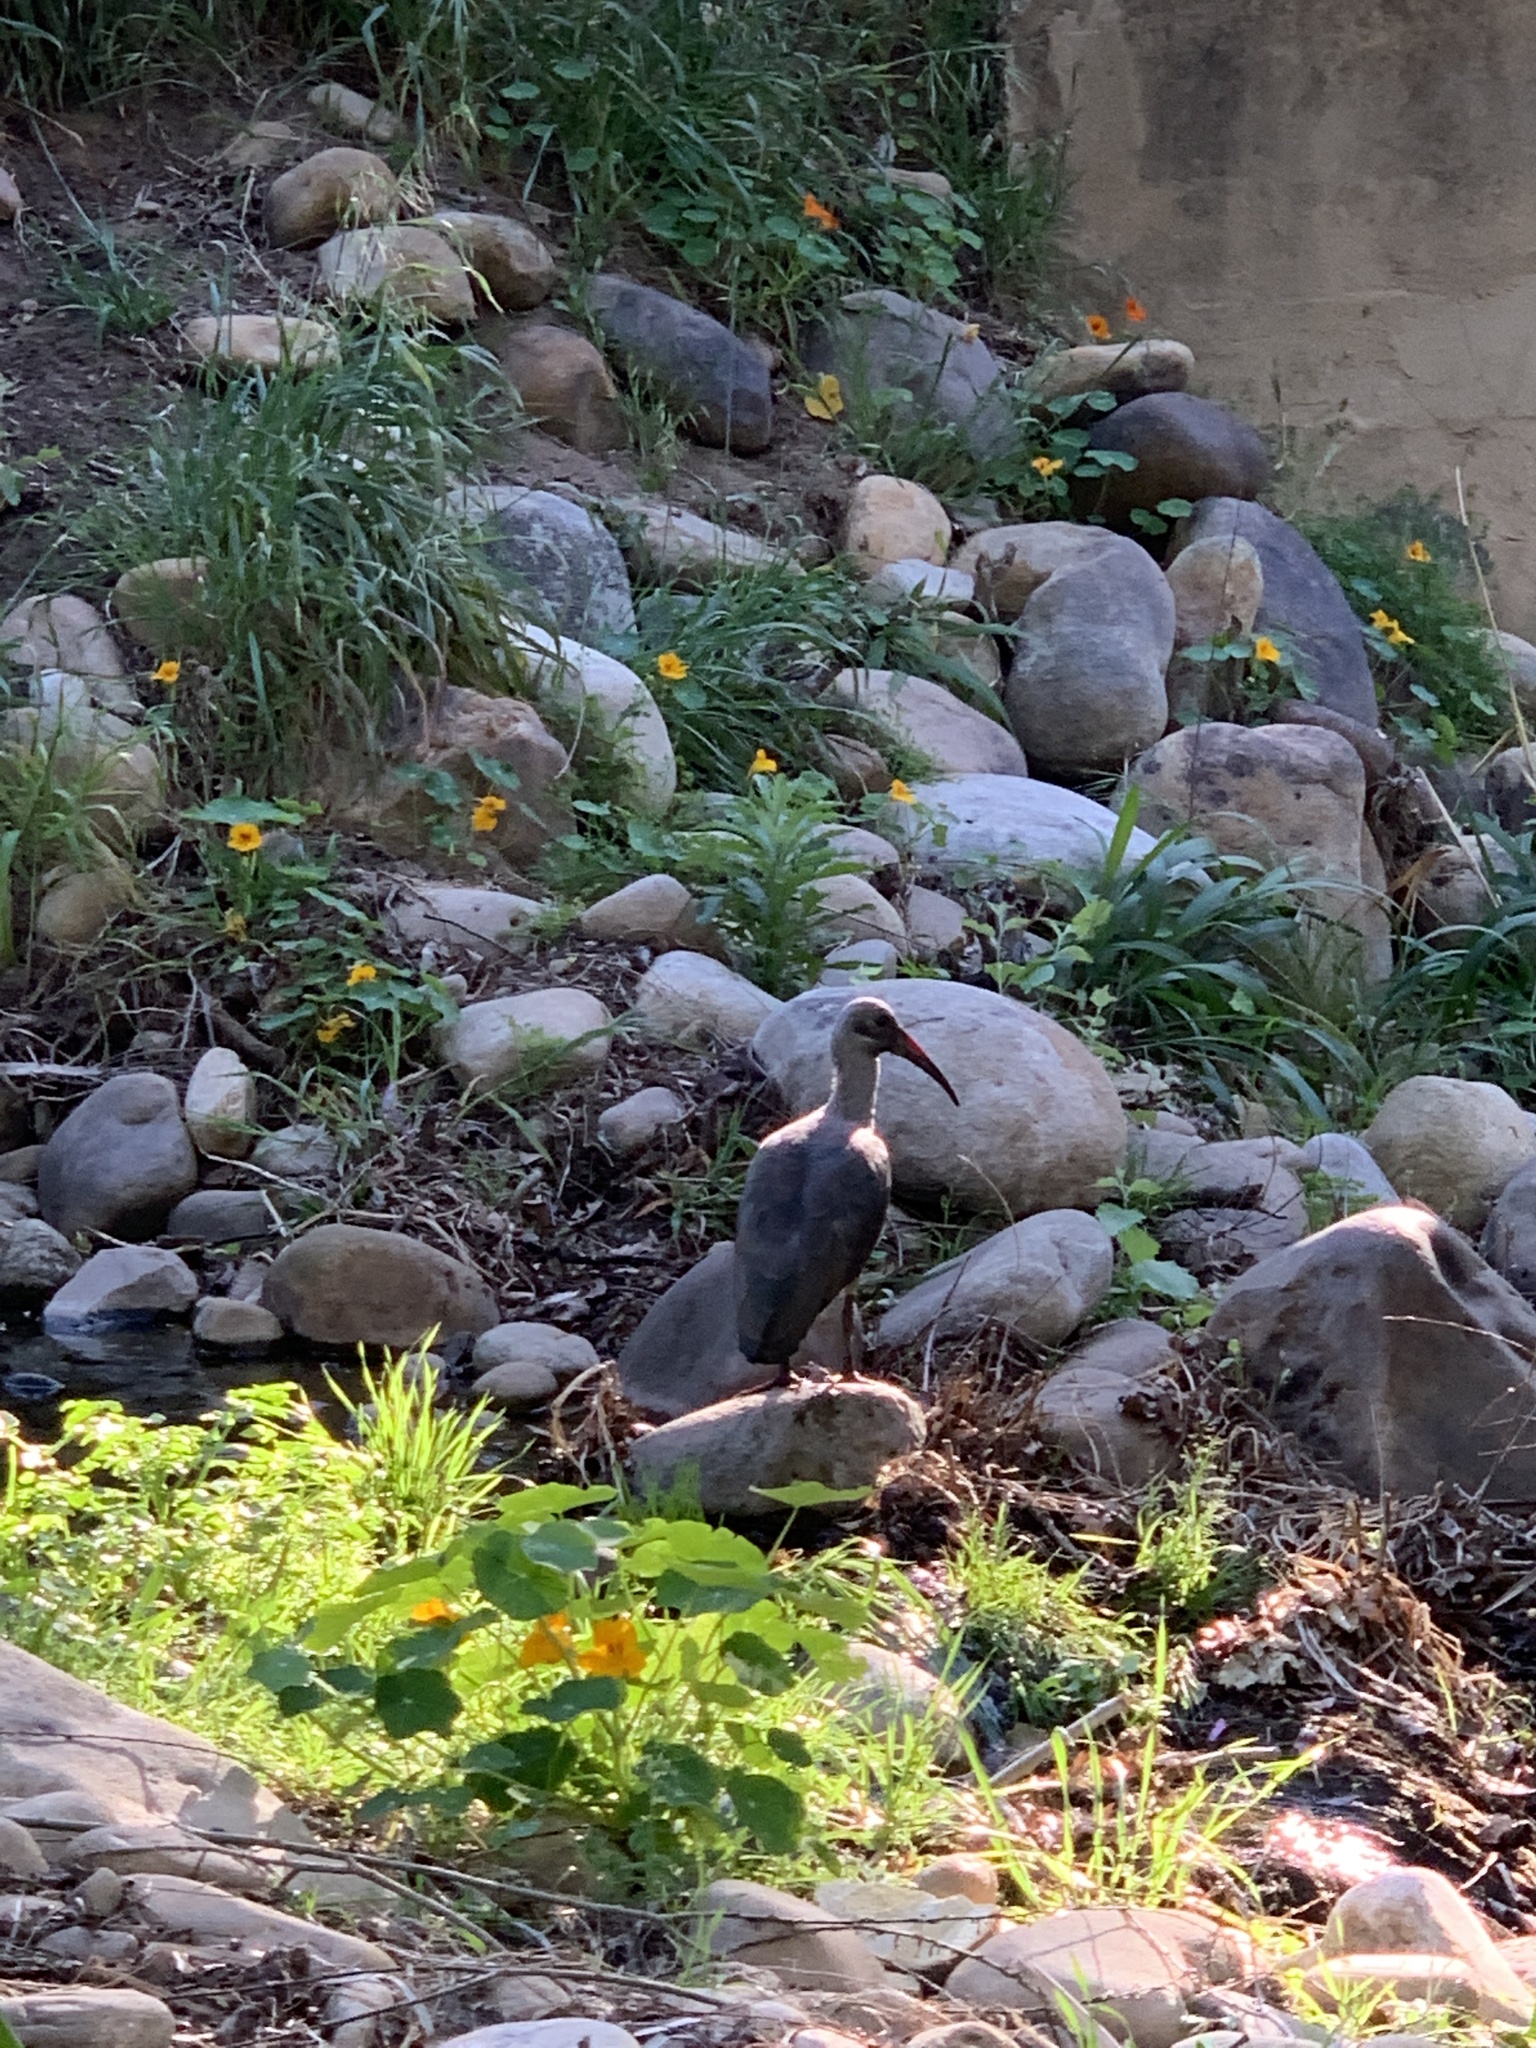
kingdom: Animalia
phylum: Chordata
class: Aves
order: Pelecaniformes
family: Threskiornithidae
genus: Bostrychia
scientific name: Bostrychia hagedash
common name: Hadada ibis
